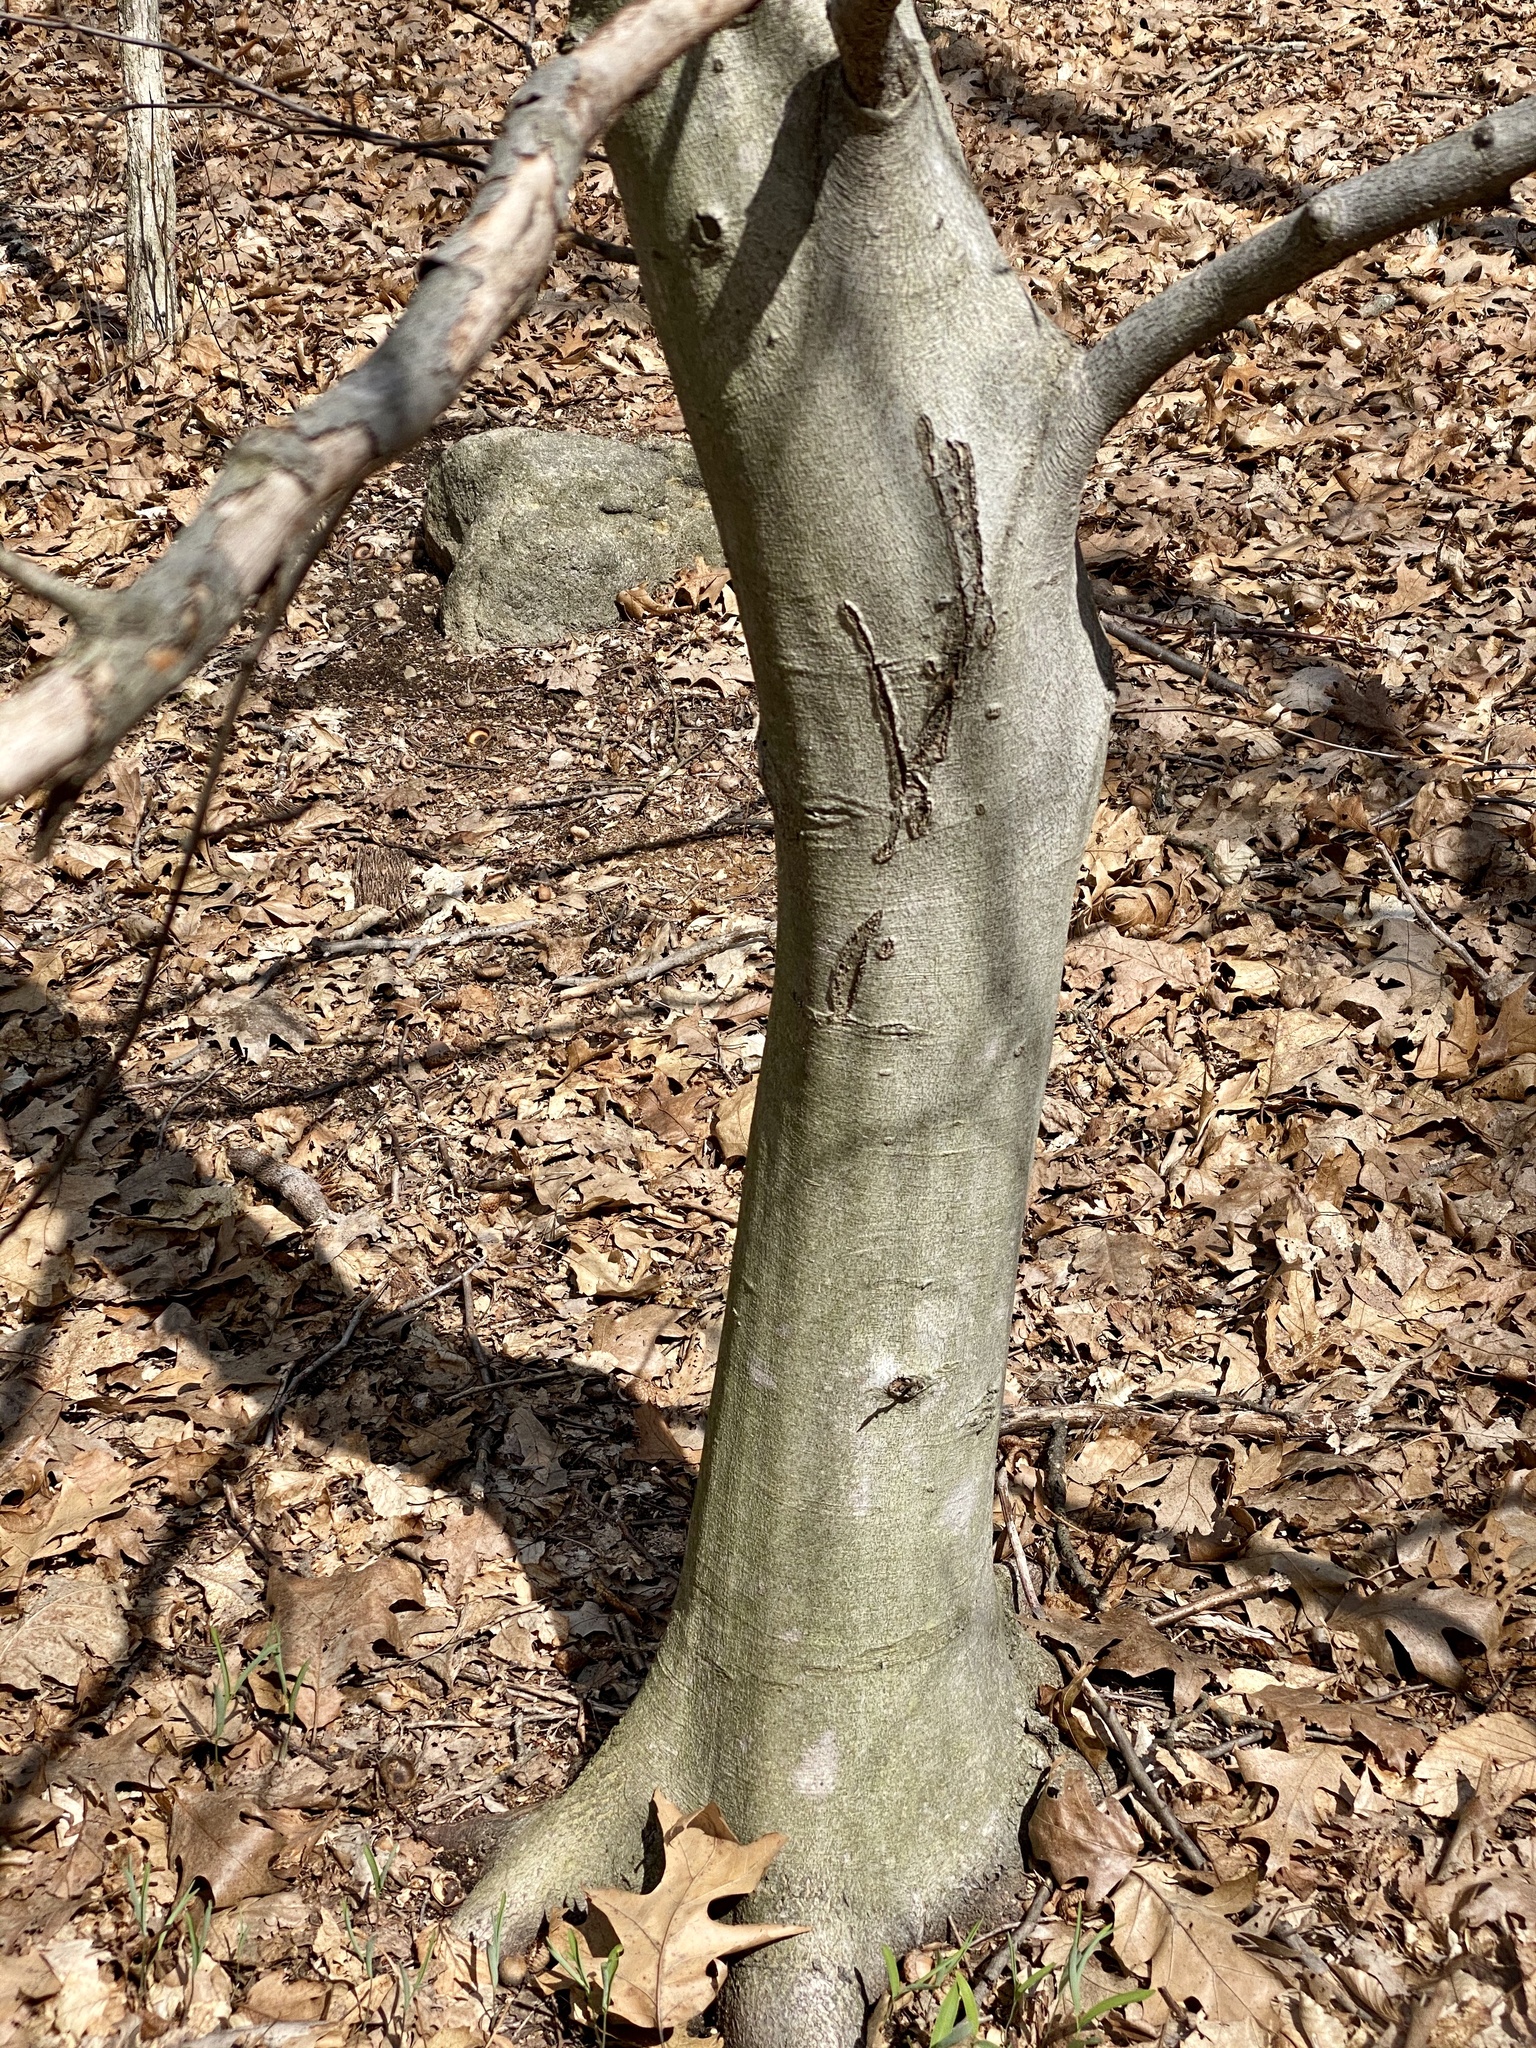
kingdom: Plantae
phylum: Tracheophyta
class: Magnoliopsida
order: Fagales
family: Fagaceae
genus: Fagus
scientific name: Fagus grandifolia
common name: American beech
